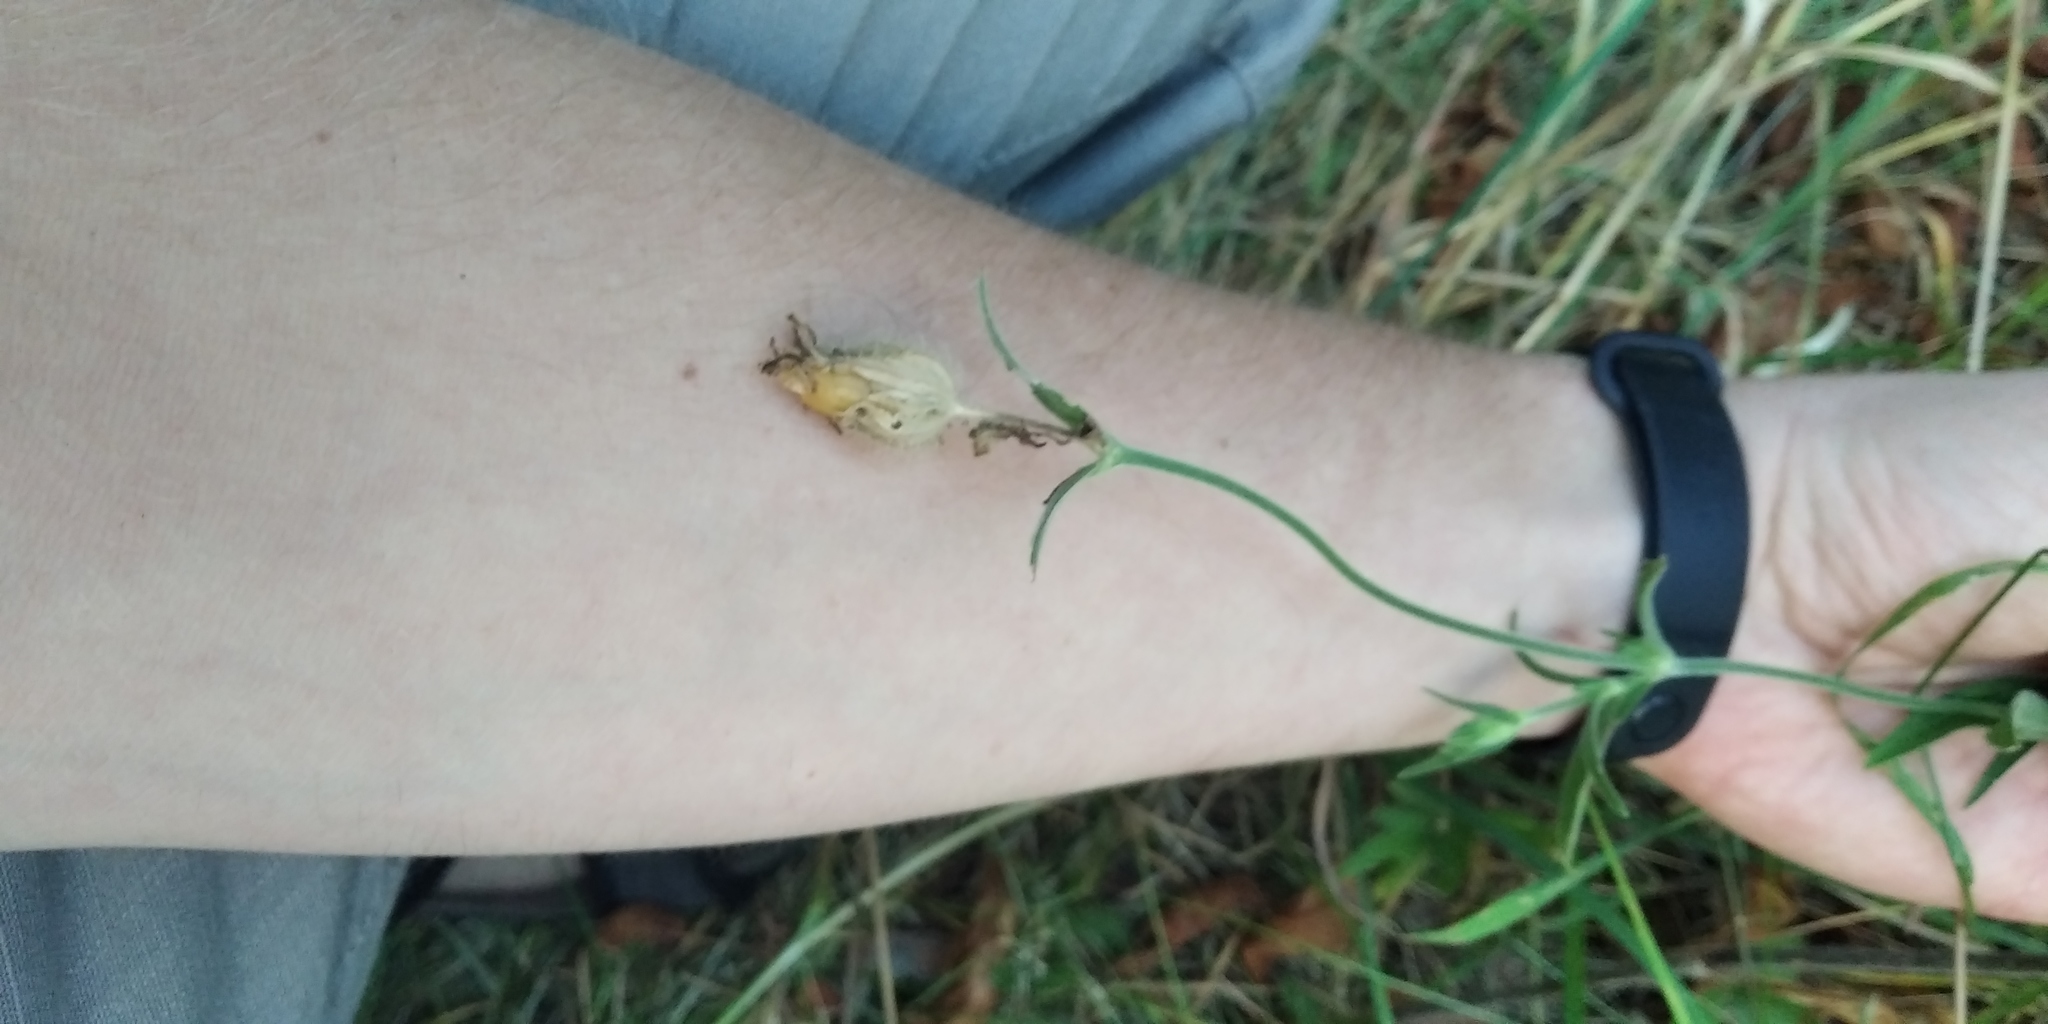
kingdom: Plantae
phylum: Tracheophyta
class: Magnoliopsida
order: Caryophyllales
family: Caryophyllaceae
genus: Silene
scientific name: Silene latifolia
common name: White campion
